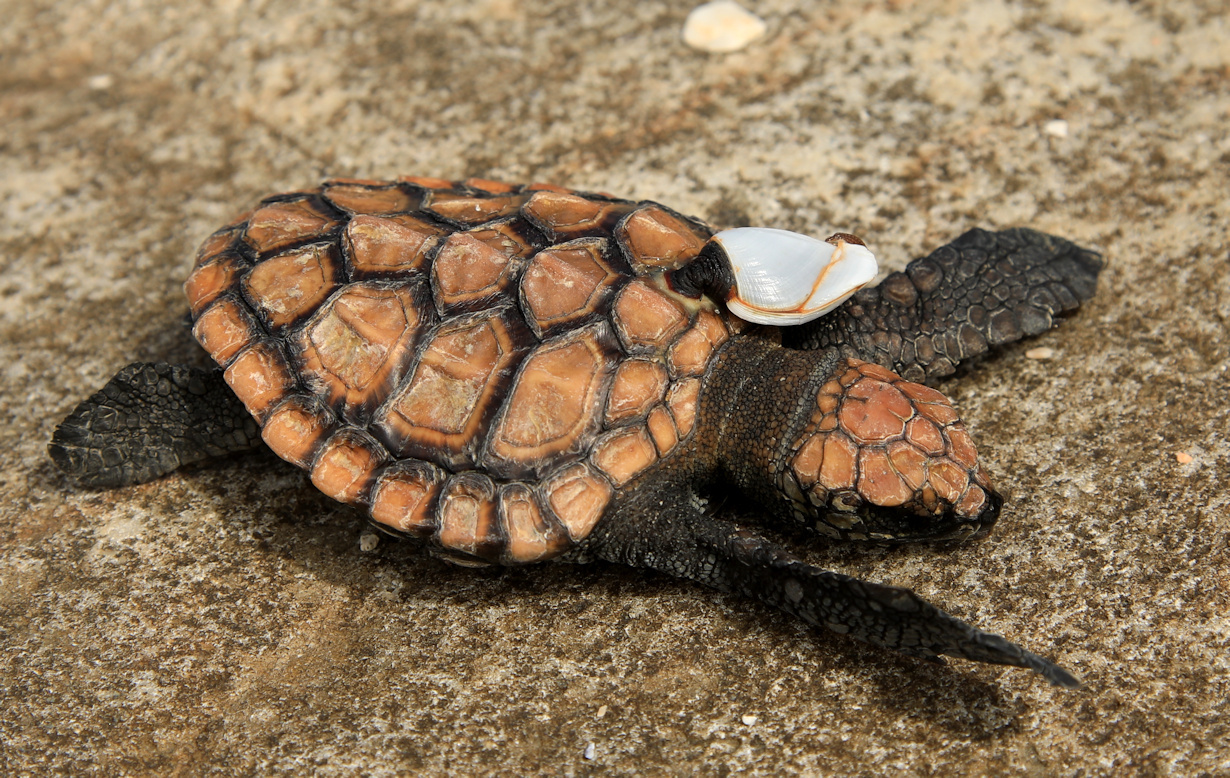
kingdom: Animalia
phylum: Chordata
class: Testudines
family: Cheloniidae
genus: Caretta
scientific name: Caretta caretta
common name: Loggerhead sea turtle
